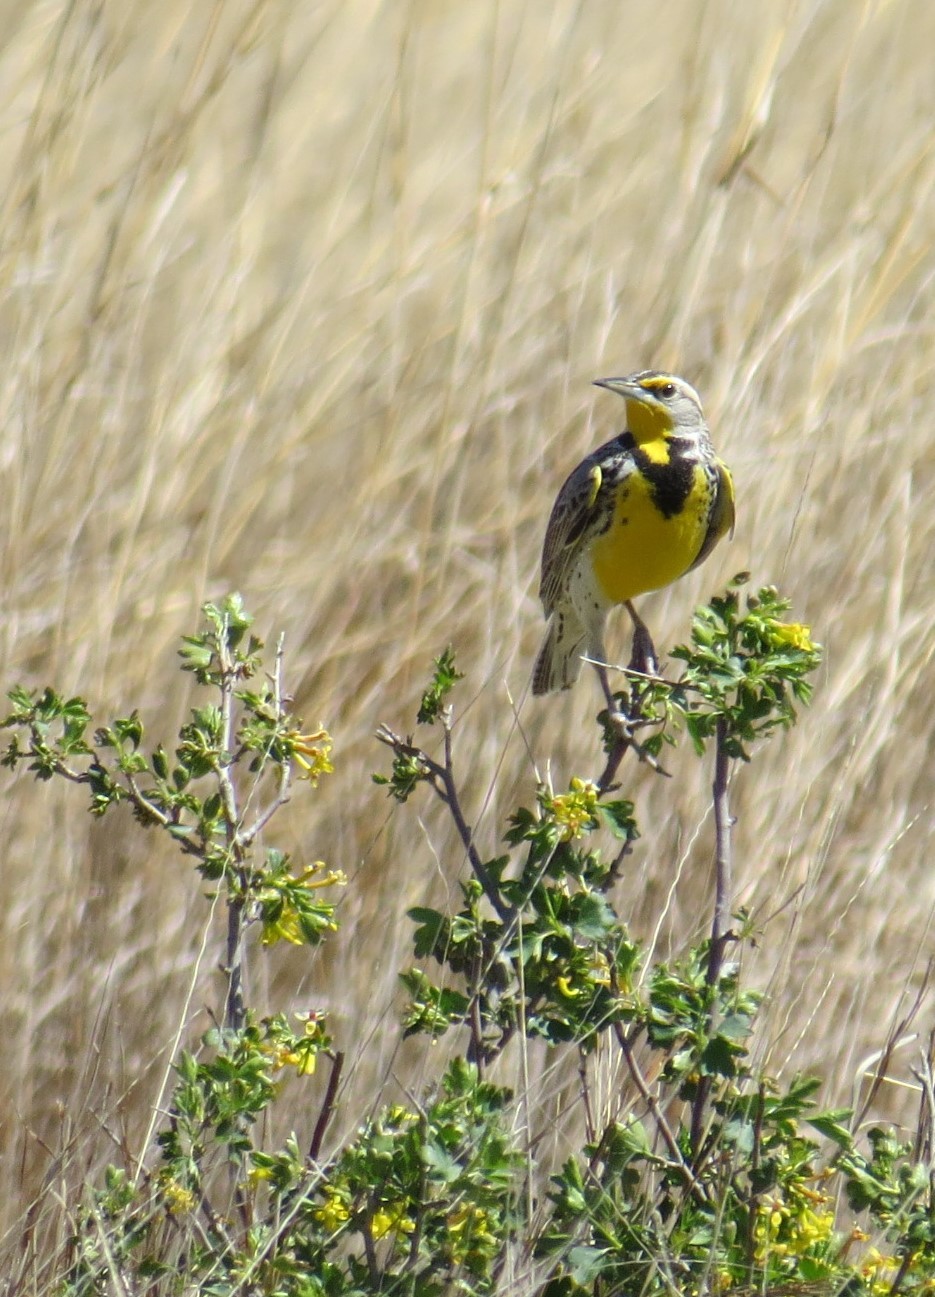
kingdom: Animalia
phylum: Chordata
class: Aves
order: Passeriformes
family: Icteridae
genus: Sturnella
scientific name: Sturnella neglecta
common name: Western meadowlark
